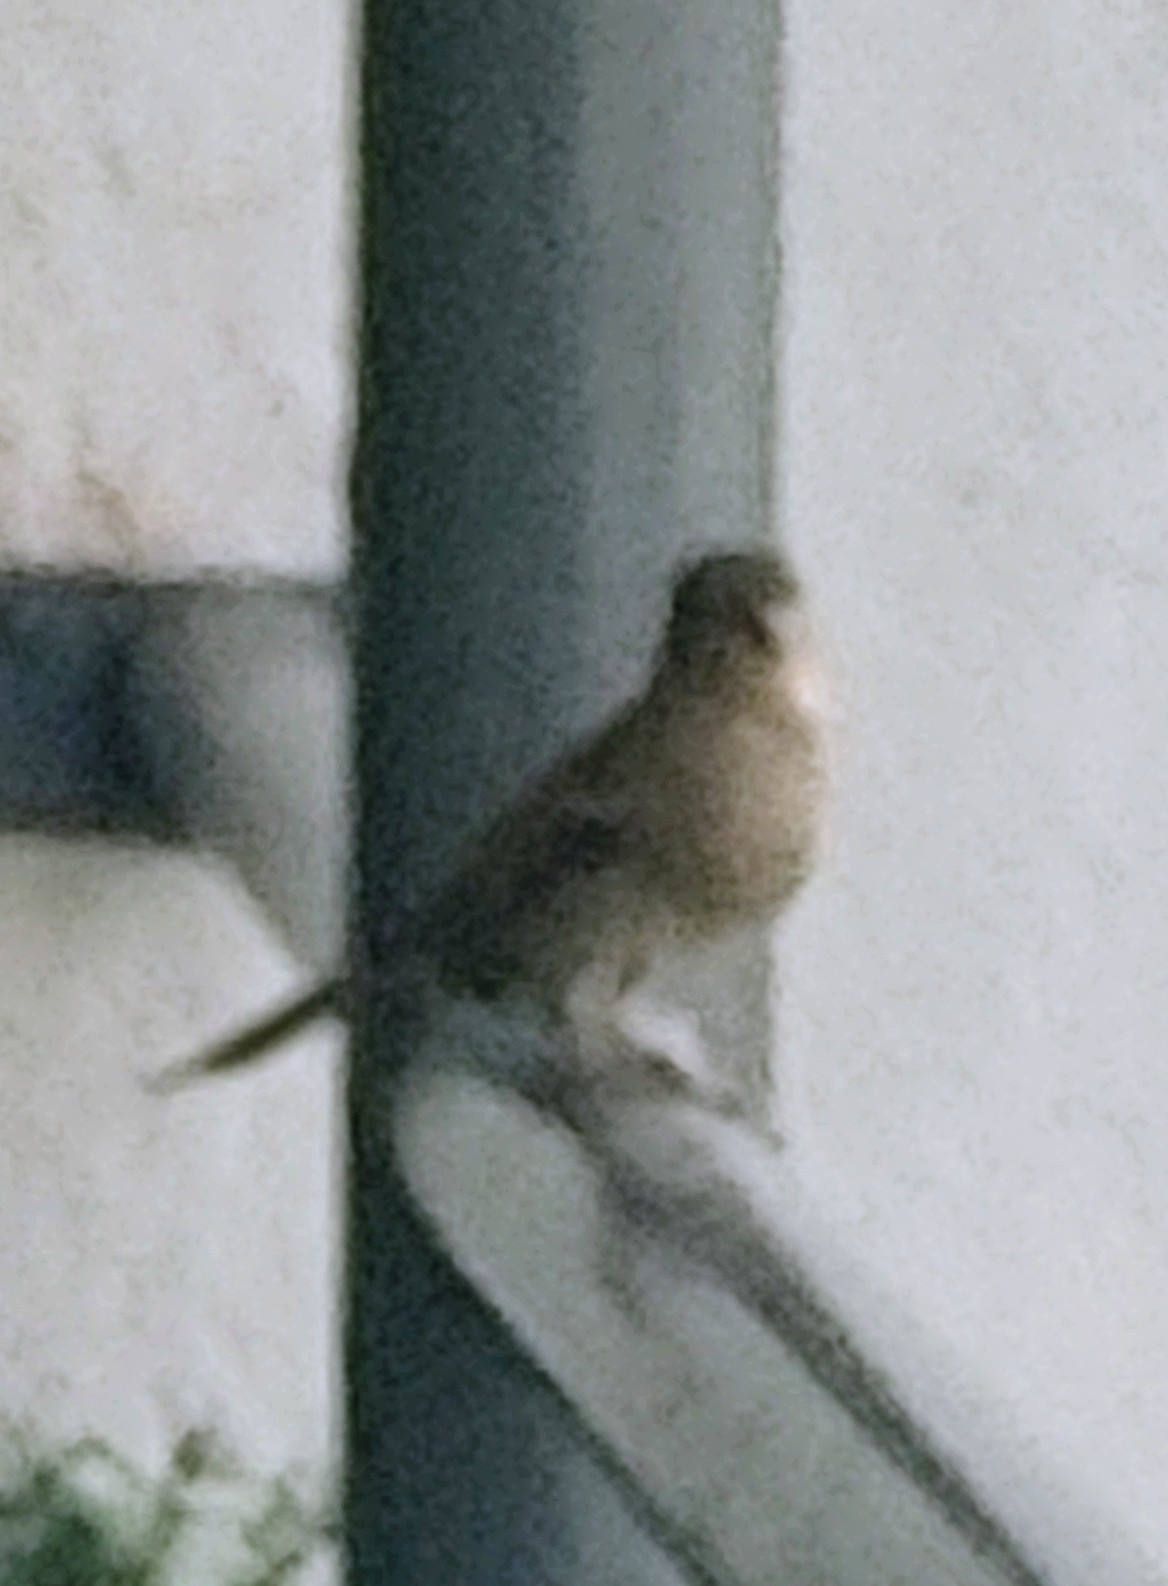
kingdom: Animalia
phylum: Chordata
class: Aves
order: Passeriformes
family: Passeridae
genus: Passer
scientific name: Passer domesticus
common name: House sparrow
